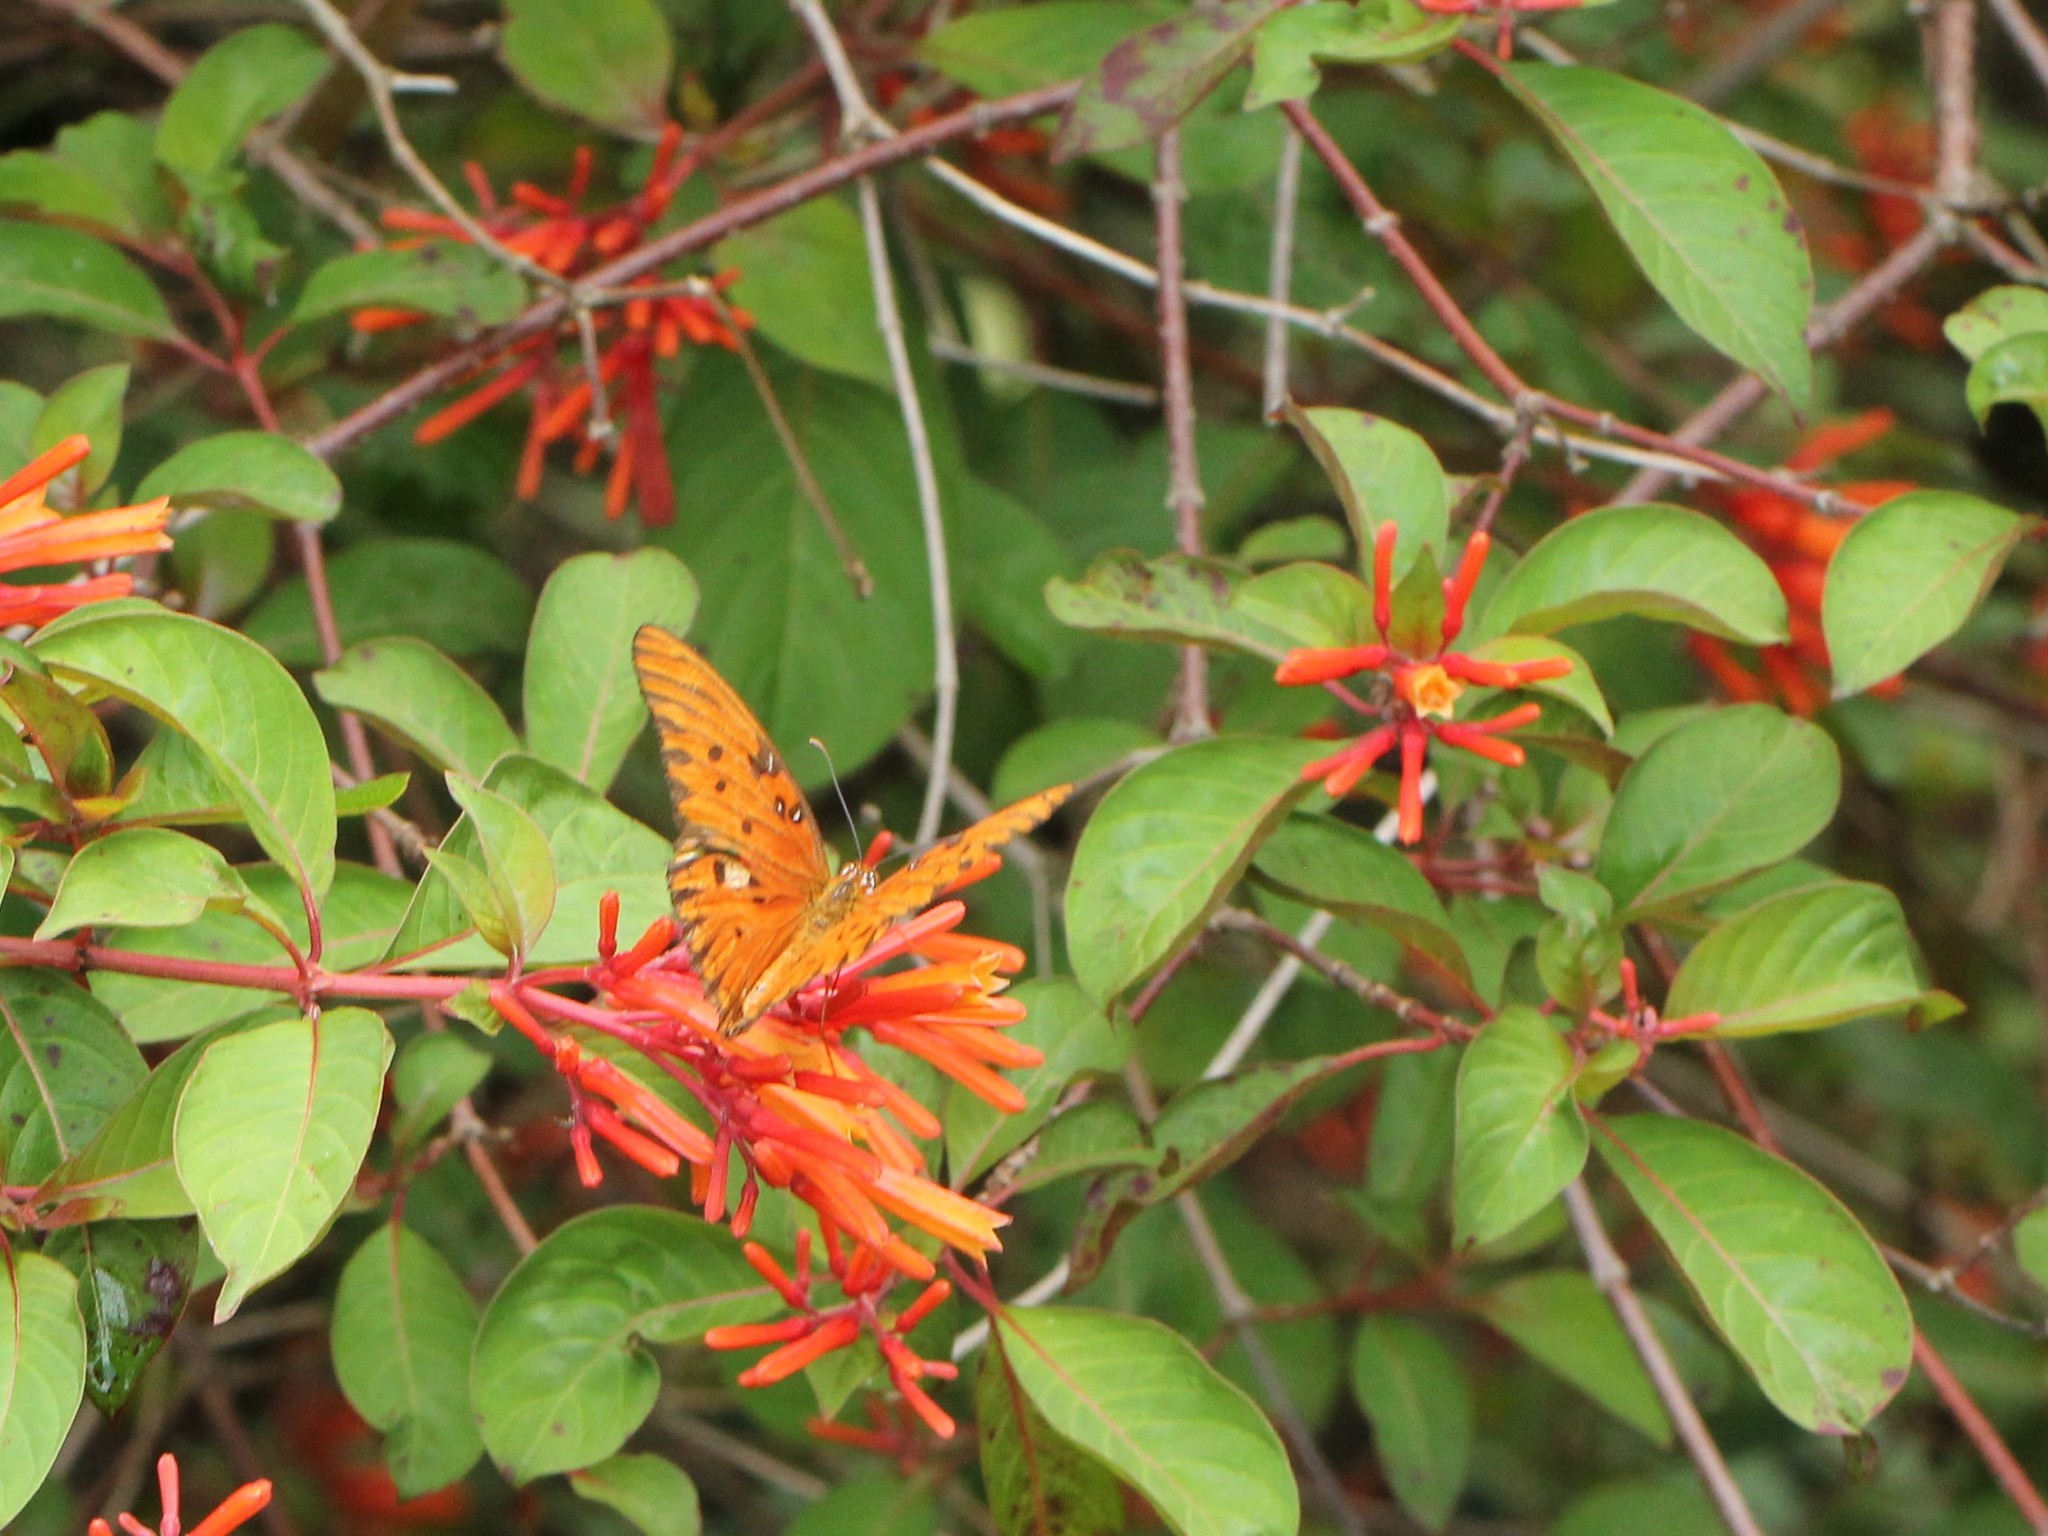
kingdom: Animalia
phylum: Arthropoda
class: Insecta
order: Lepidoptera
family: Nymphalidae
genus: Dione
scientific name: Dione vanillae
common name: Gulf fritillary
